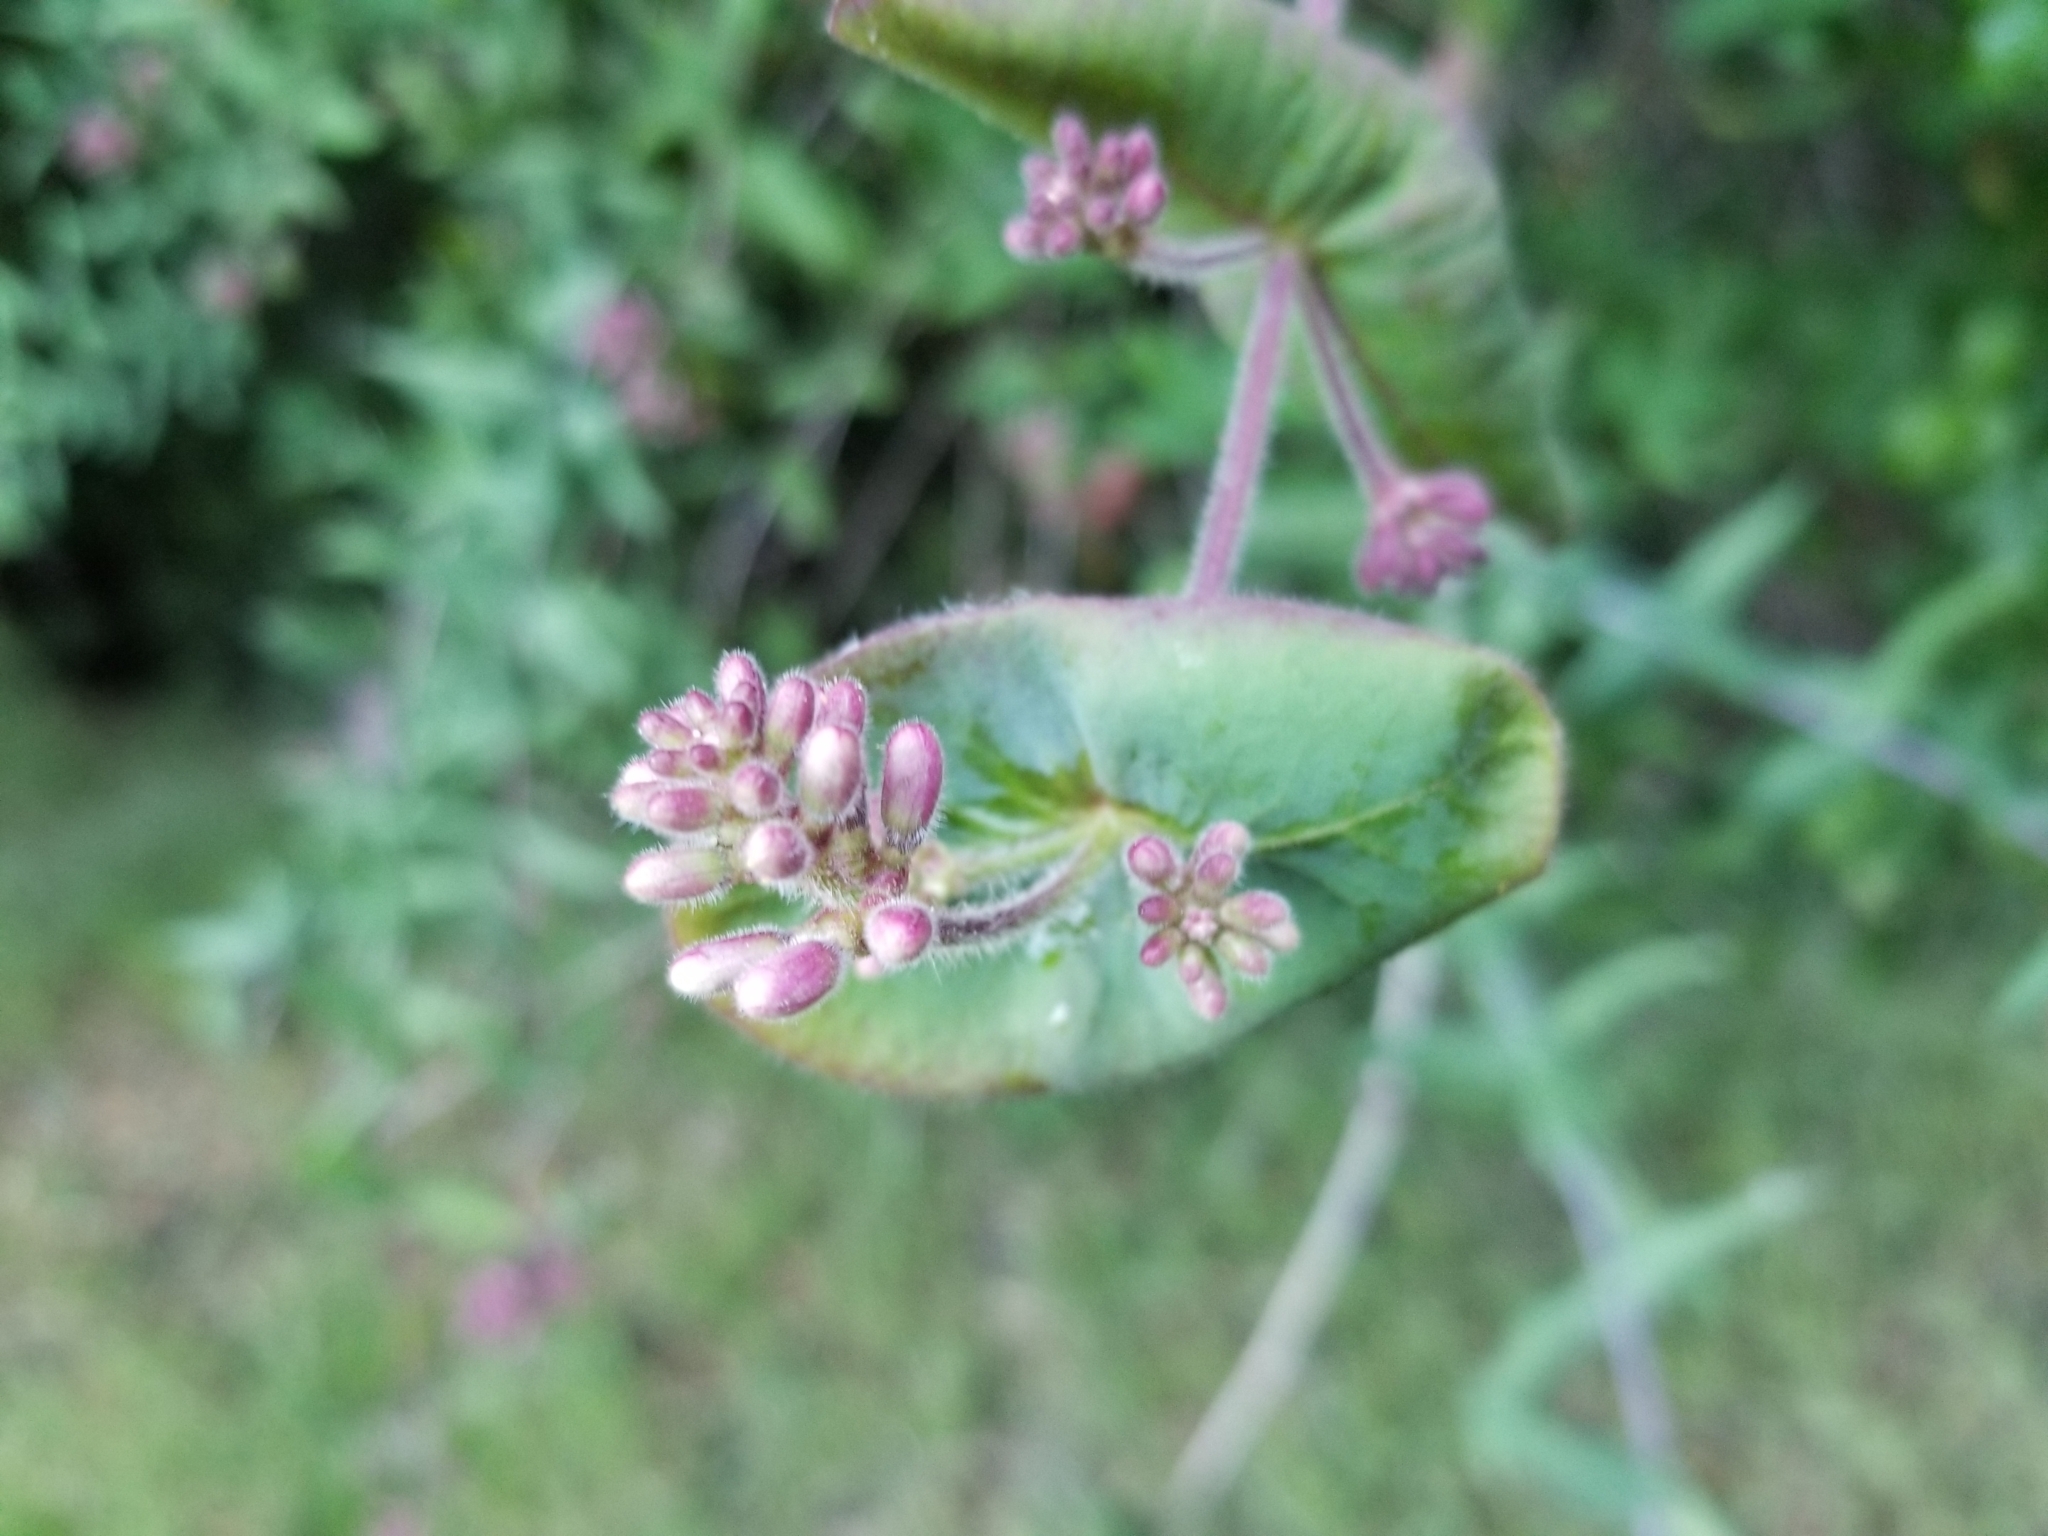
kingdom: Plantae
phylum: Tracheophyta
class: Magnoliopsida
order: Dipsacales
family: Caprifoliaceae
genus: Lonicera
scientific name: Lonicera hispidula
